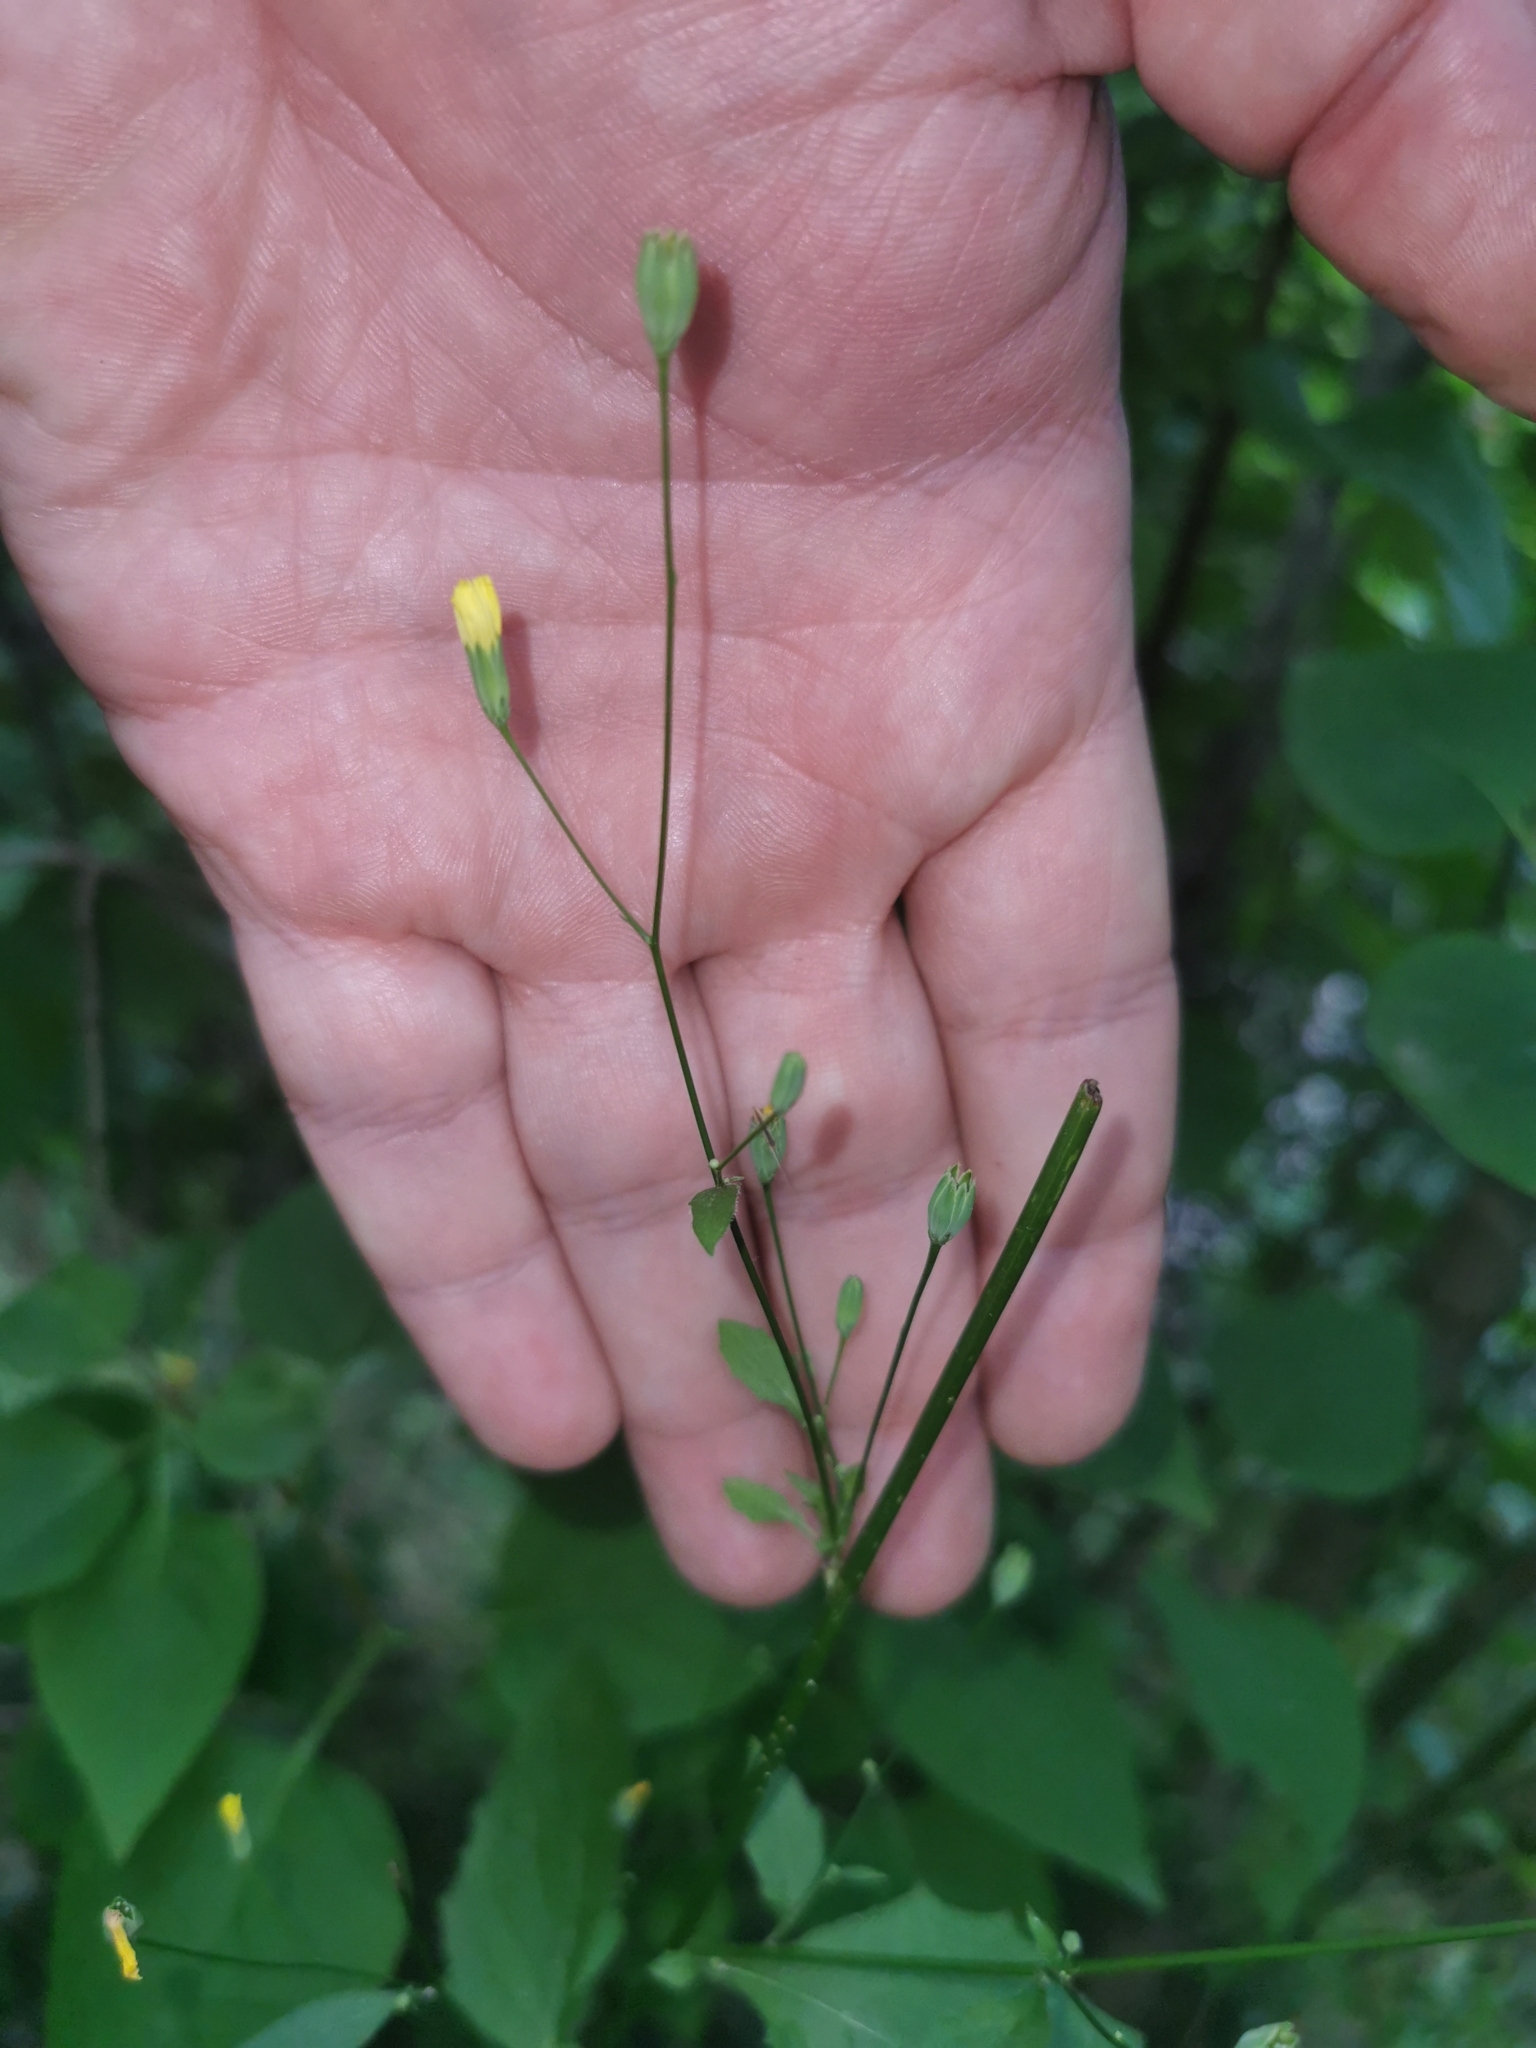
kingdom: Plantae
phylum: Tracheophyta
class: Magnoliopsida
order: Asterales
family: Asteraceae
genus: Lapsana
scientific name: Lapsana communis
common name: Nipplewort
